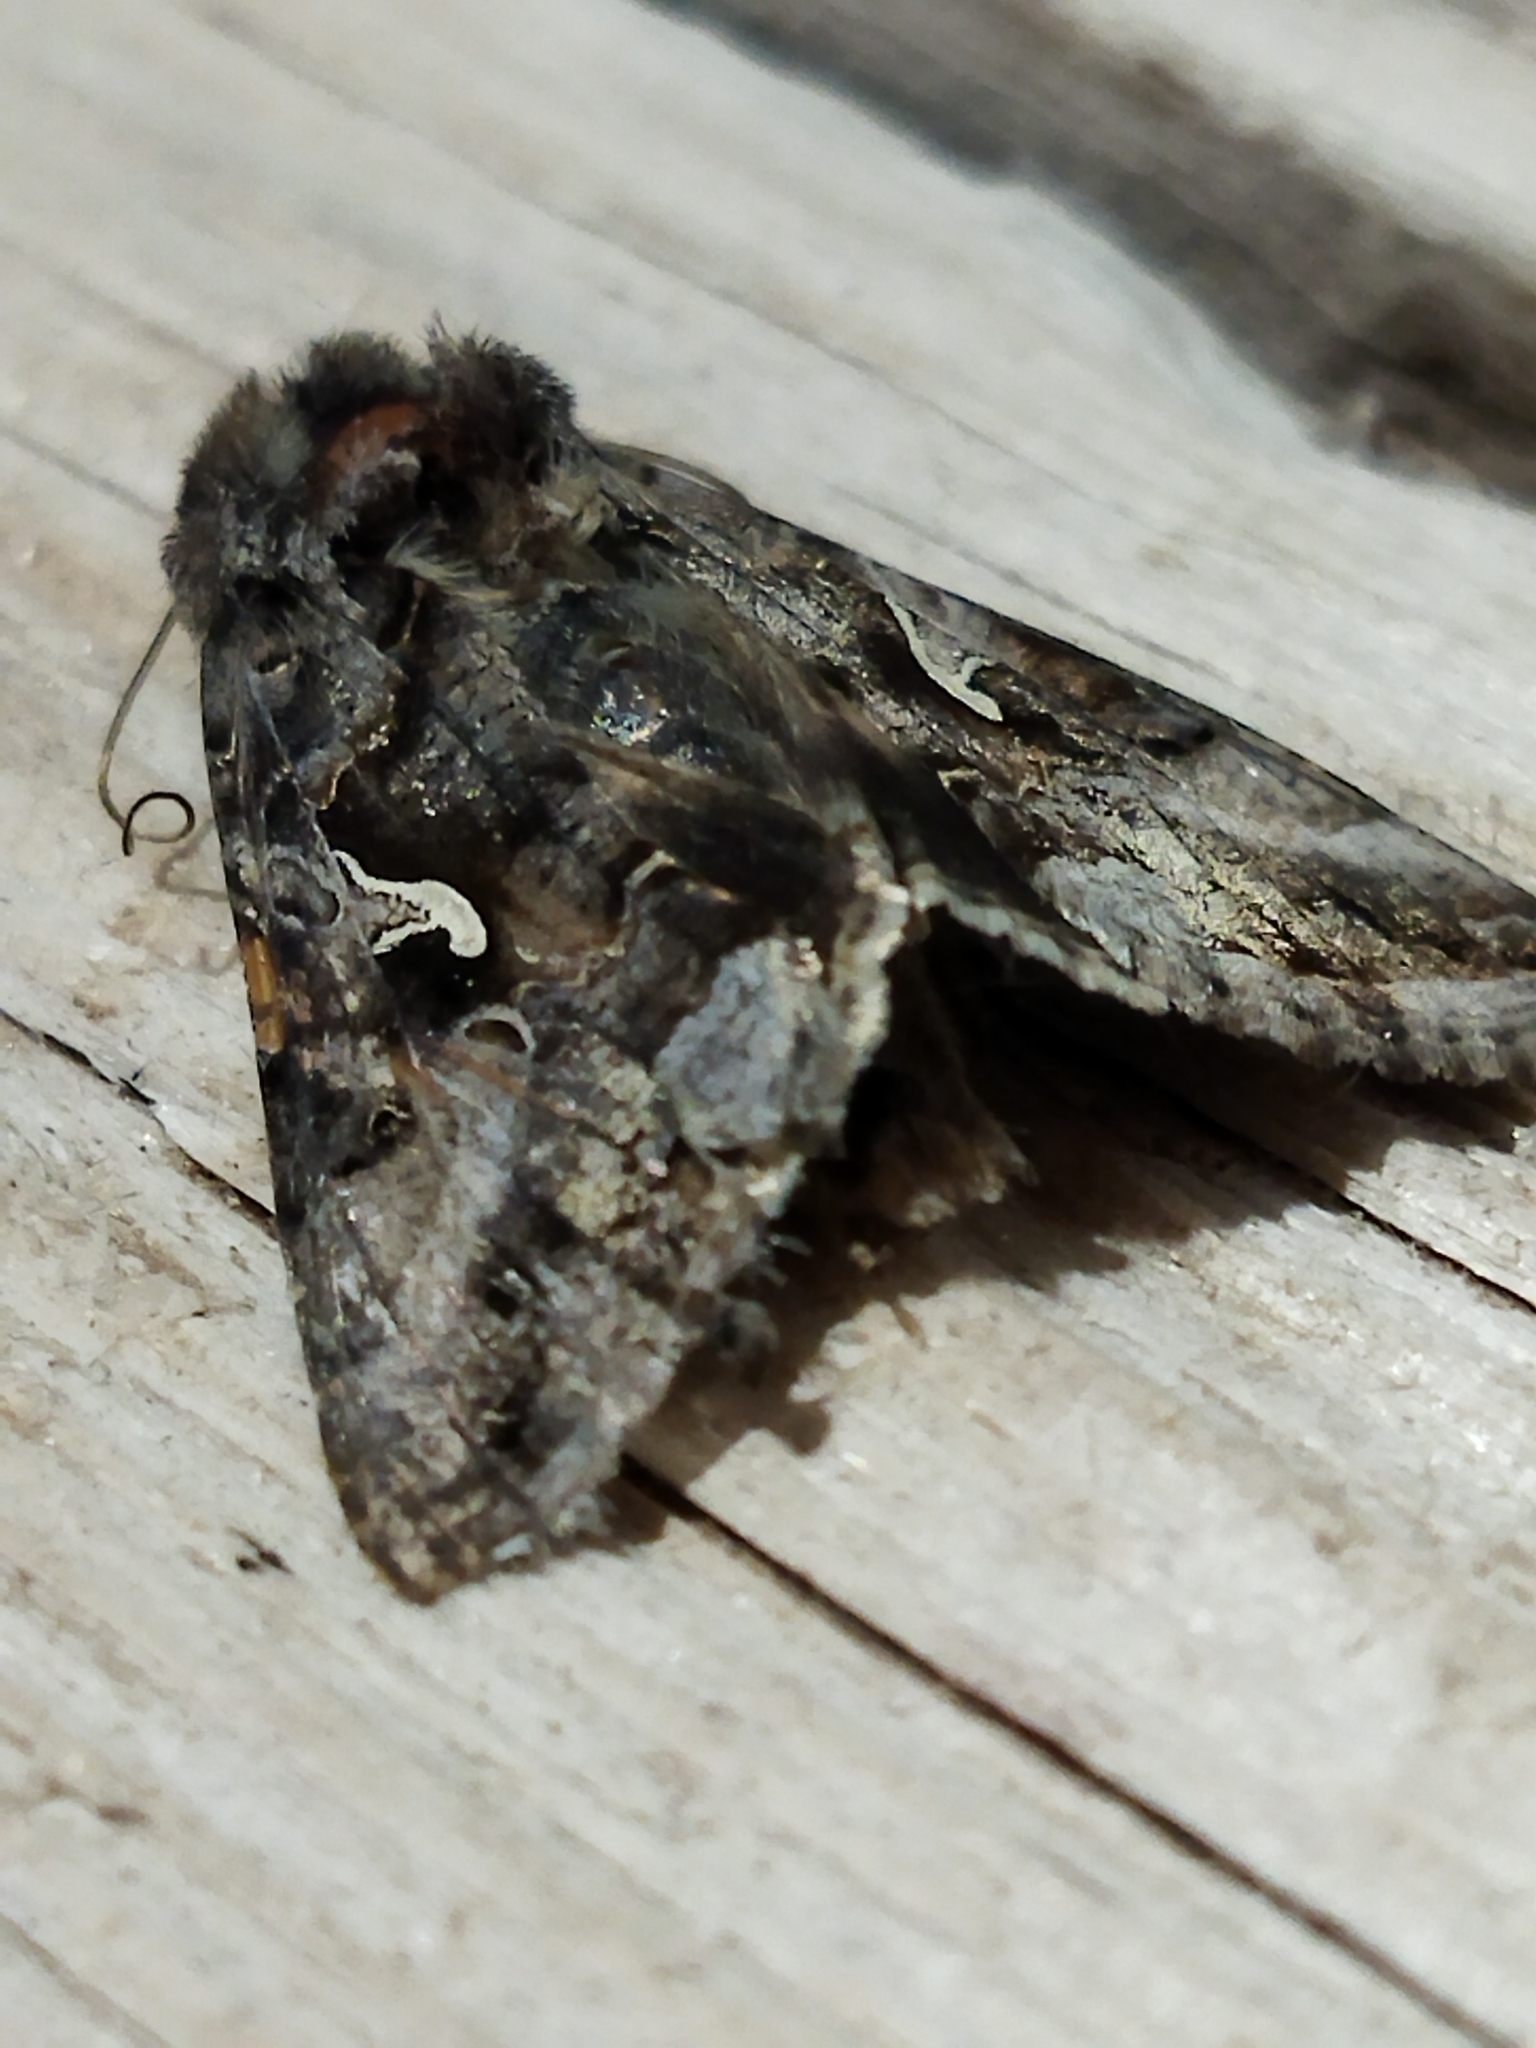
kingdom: Animalia
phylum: Arthropoda
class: Insecta
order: Lepidoptera
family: Noctuidae
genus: Autographa
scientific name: Autographa gamma
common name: Silver y
